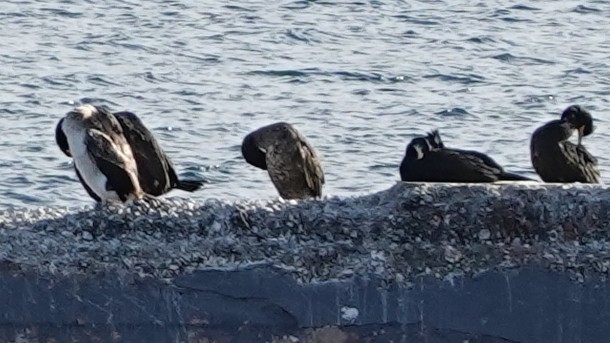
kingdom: Animalia
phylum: Chordata
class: Aves
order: Suliformes
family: Phalacrocoracidae
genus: Microcarbo
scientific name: Microcarbo pygmaeus
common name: Pygmy cormorant
